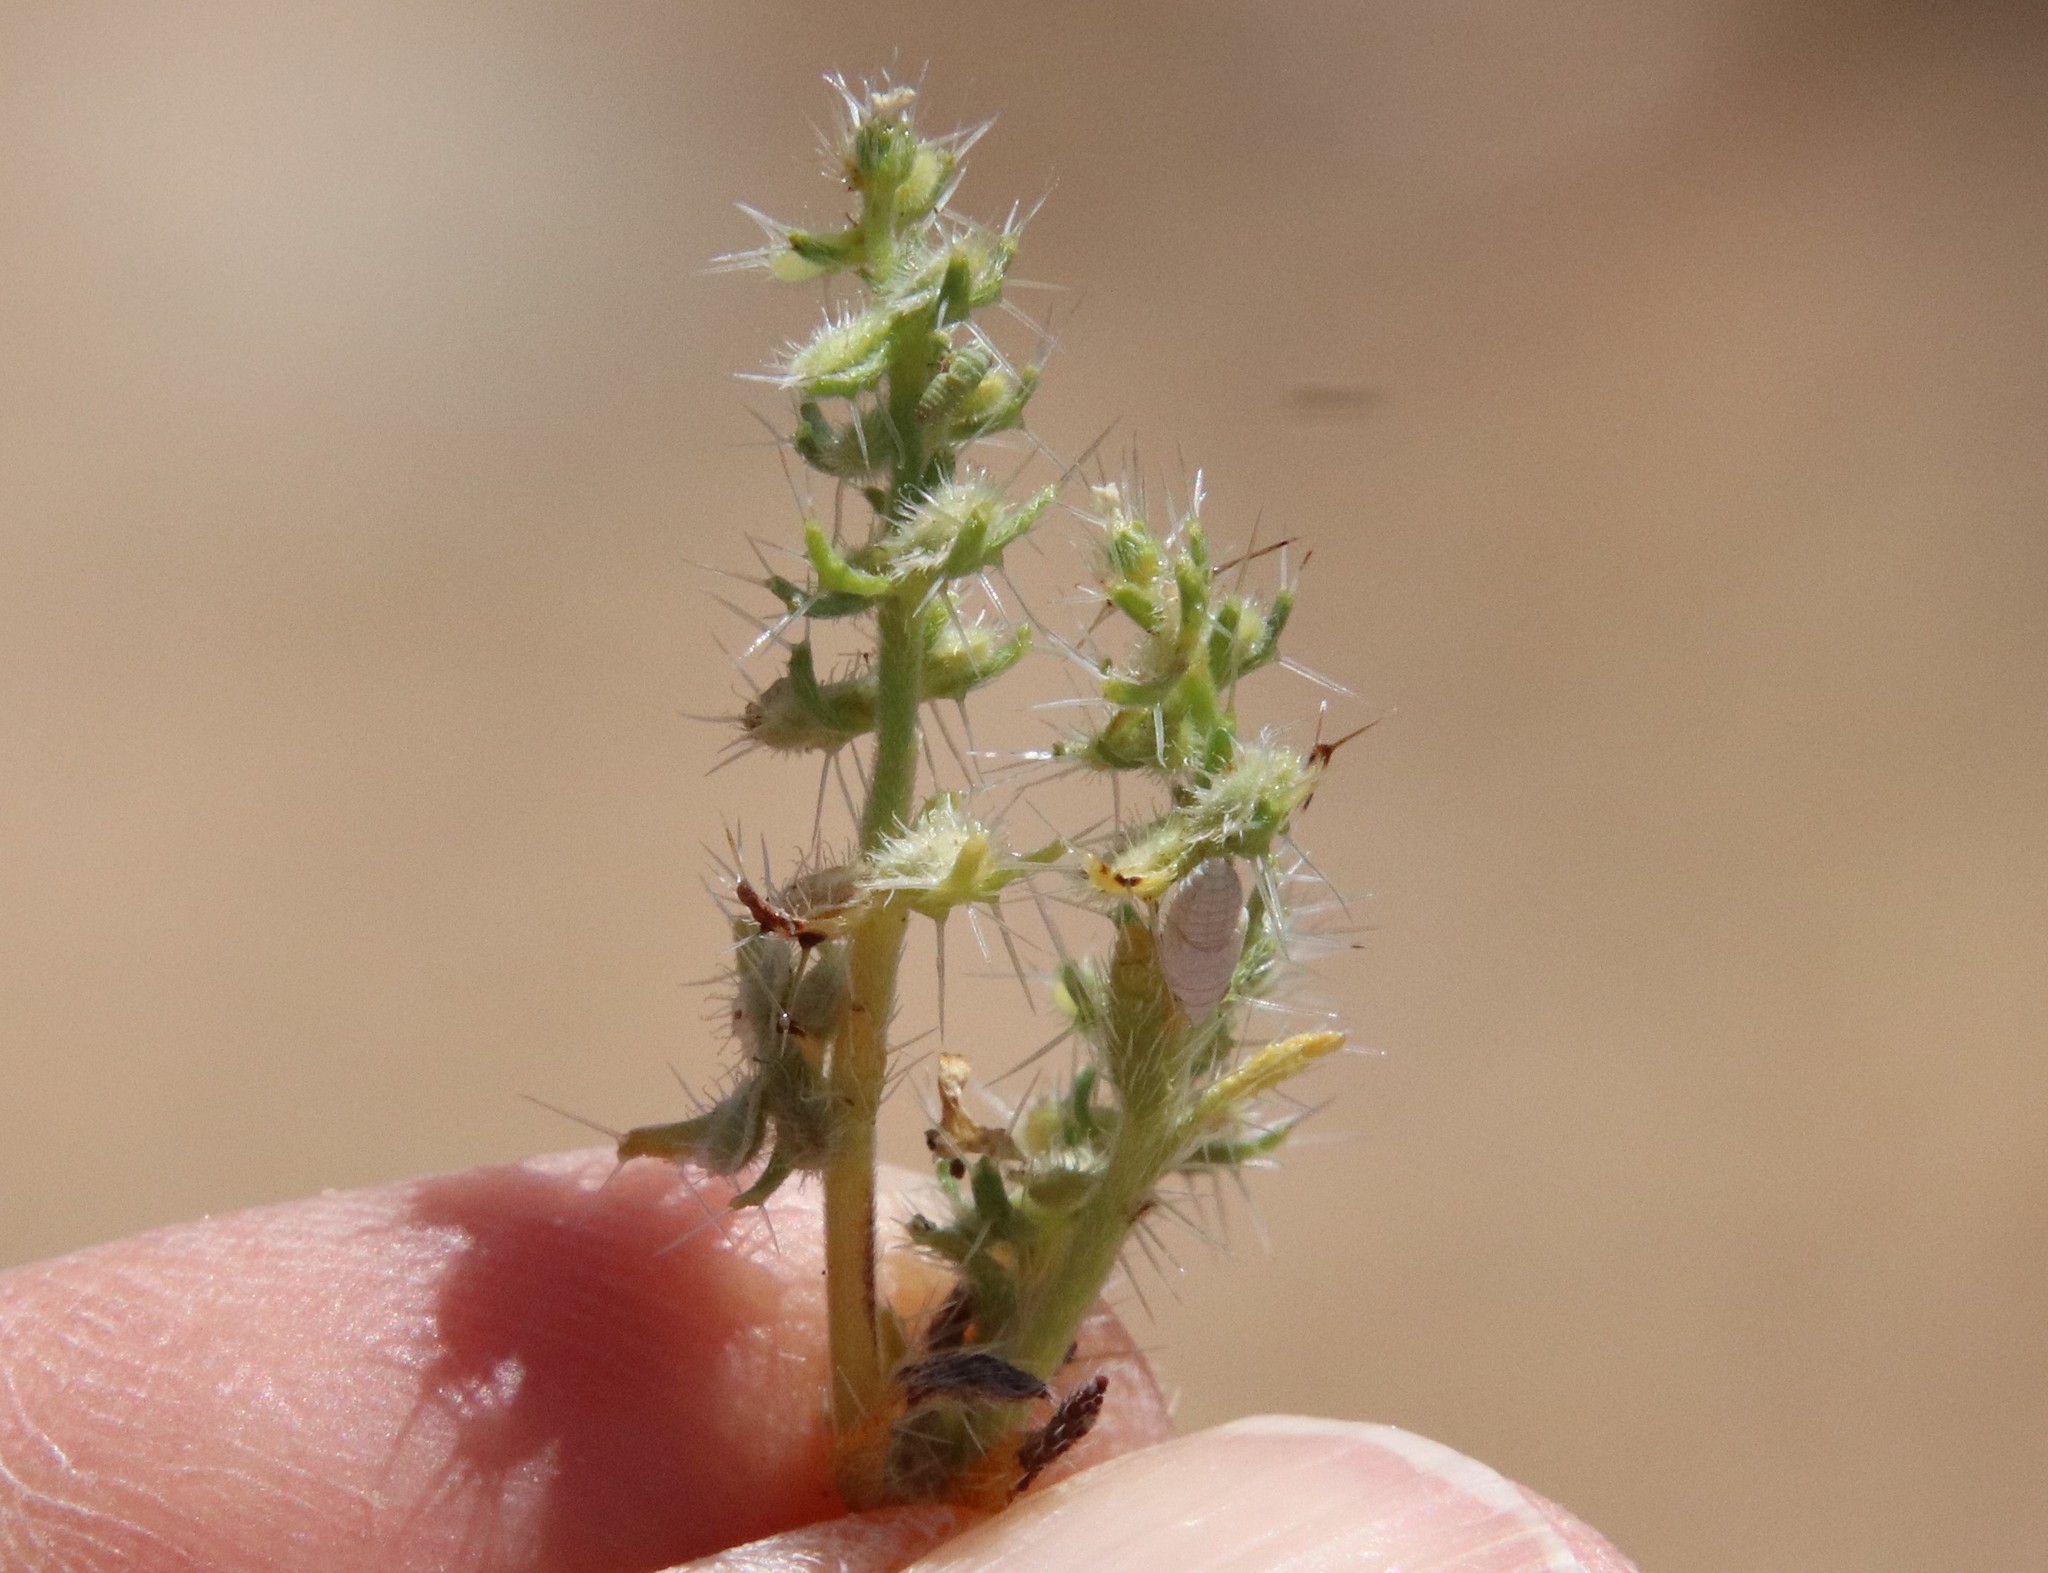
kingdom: Plantae
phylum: Tracheophyta
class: Magnoliopsida
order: Boraginales
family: Boraginaceae
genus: Pectocarya
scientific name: Pectocarya setosa
